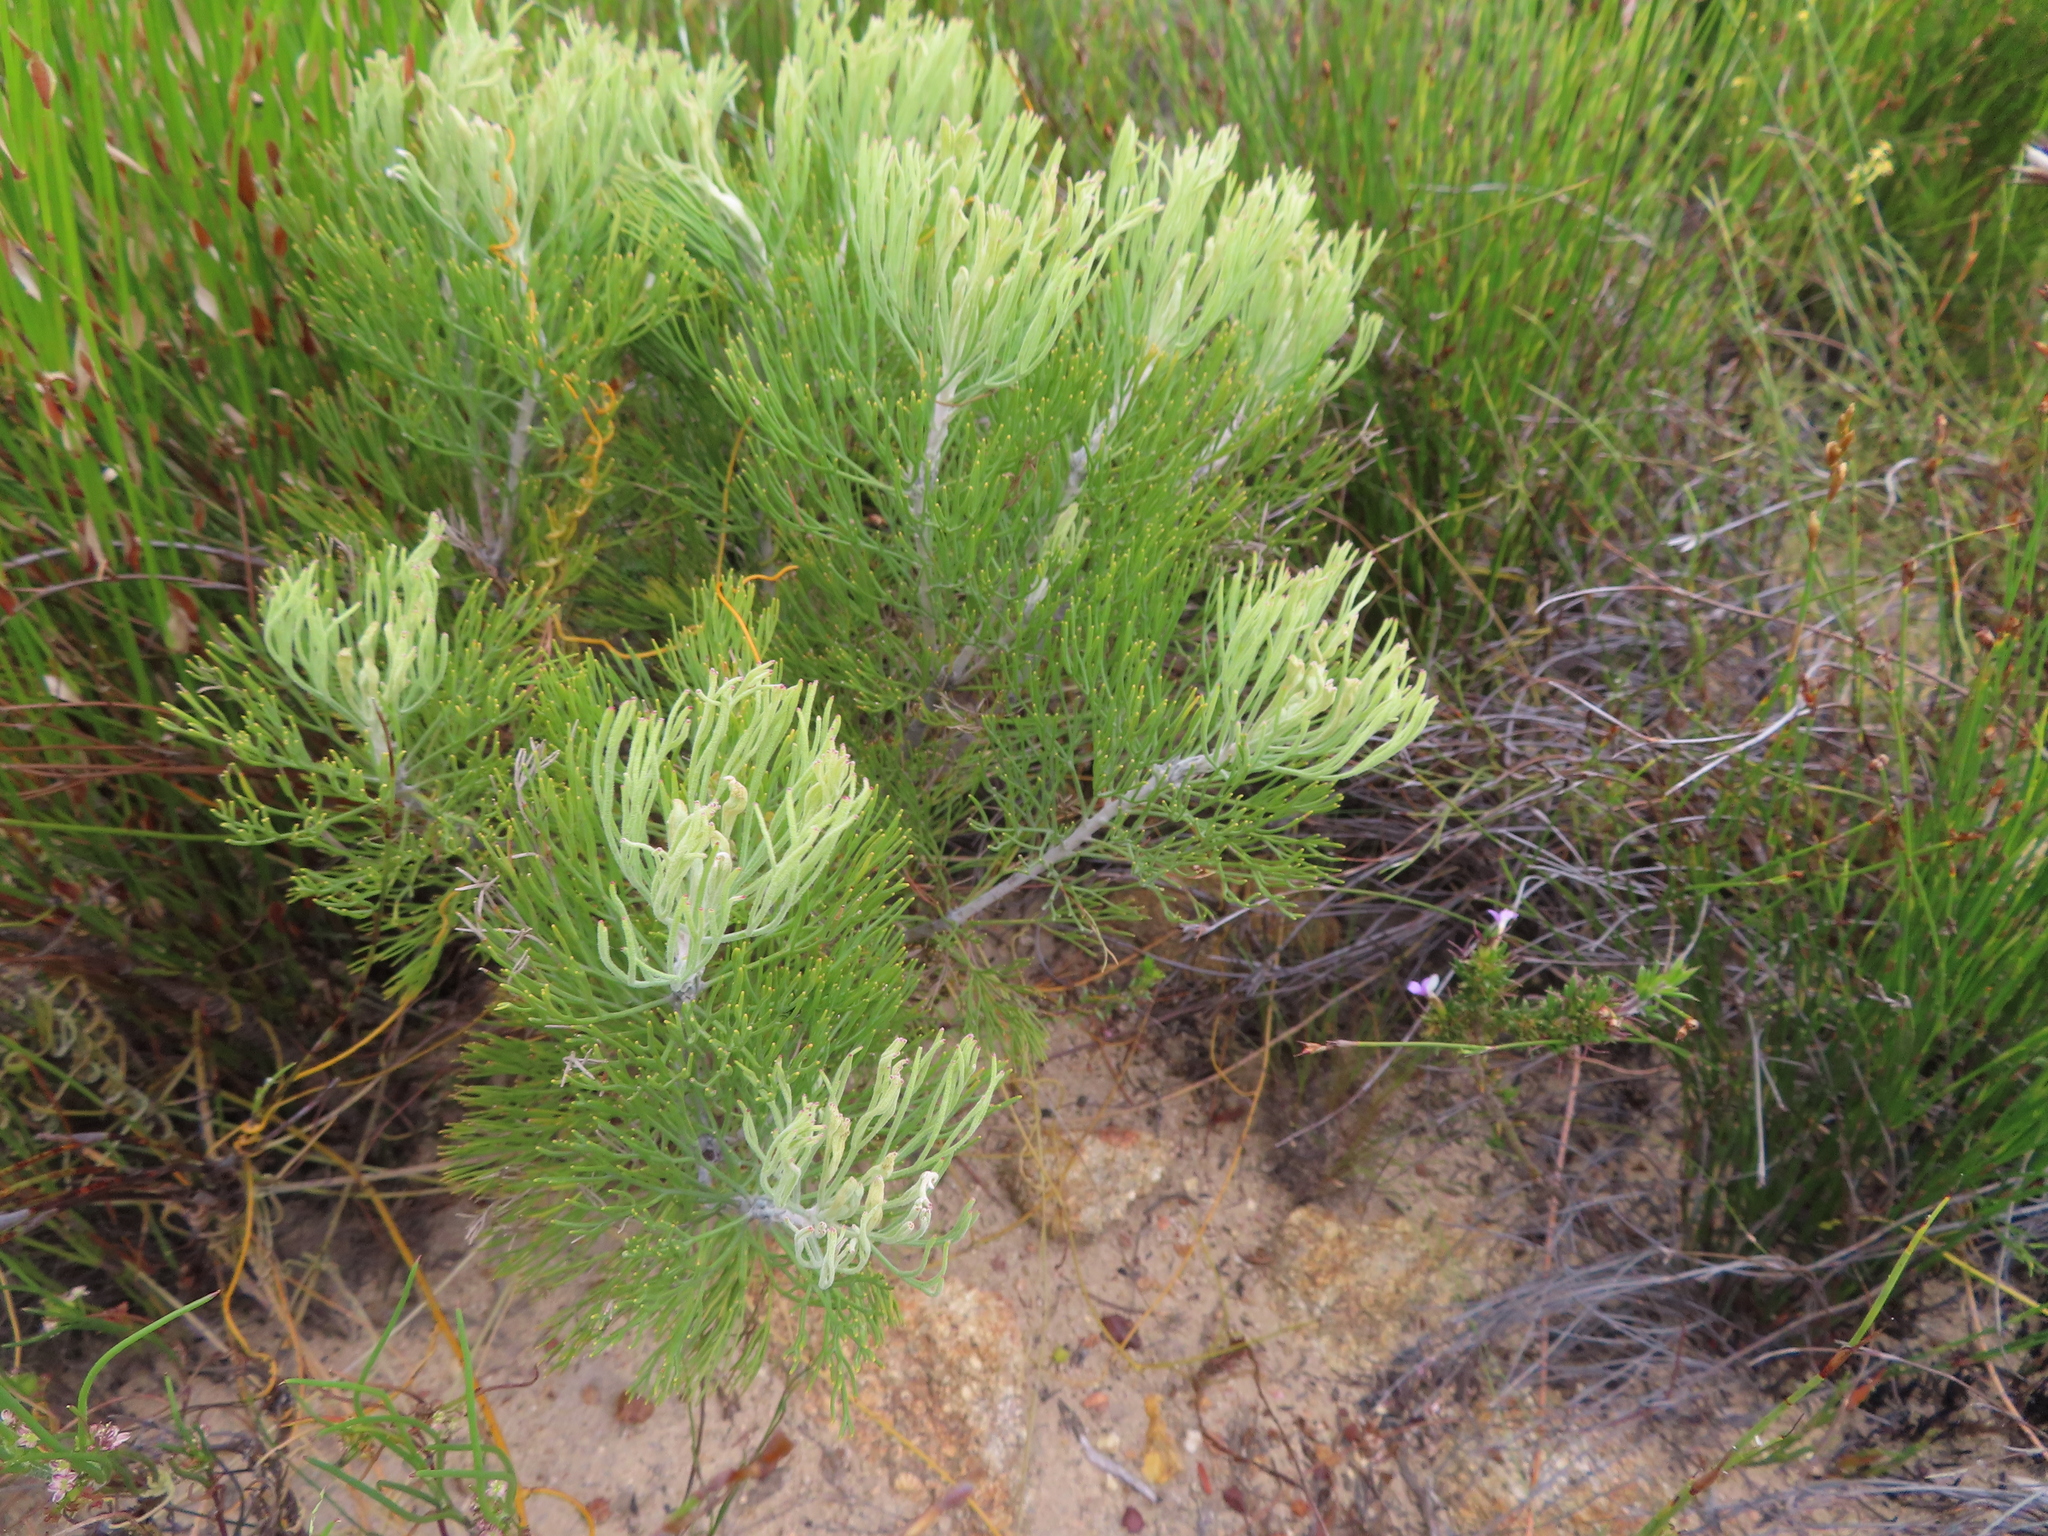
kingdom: Plantae
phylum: Tracheophyta
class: Magnoliopsida
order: Proteales
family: Proteaceae
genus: Paranomus
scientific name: Paranomus spicatus
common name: Kogelberg sceptre
